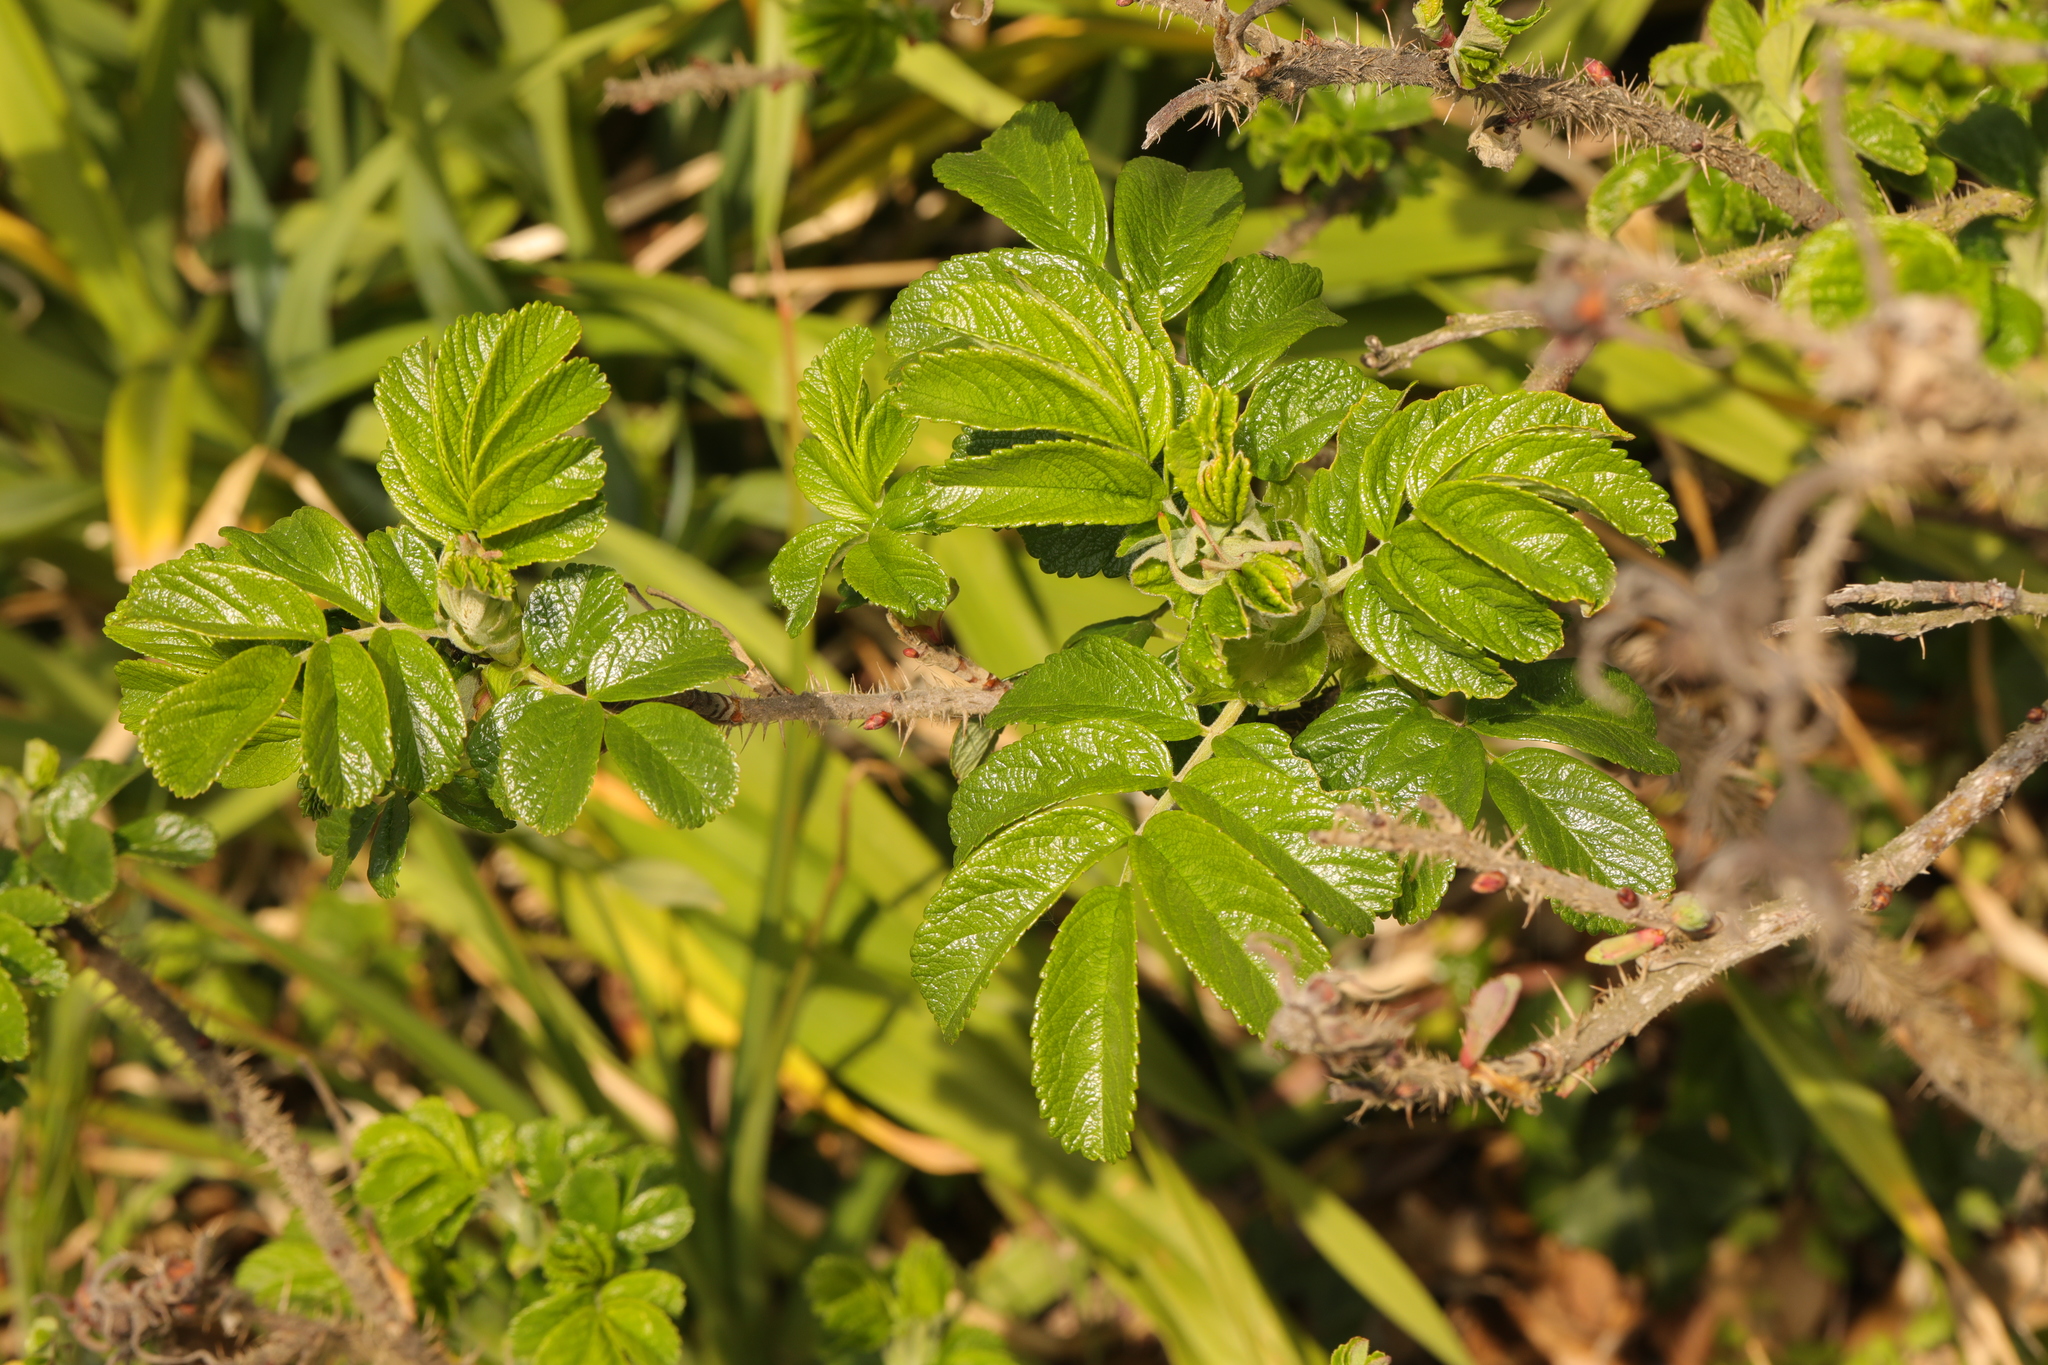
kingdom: Plantae
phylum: Tracheophyta
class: Magnoliopsida
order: Rosales
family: Rosaceae
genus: Rosa
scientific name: Rosa rugosa
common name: Japanese rose
